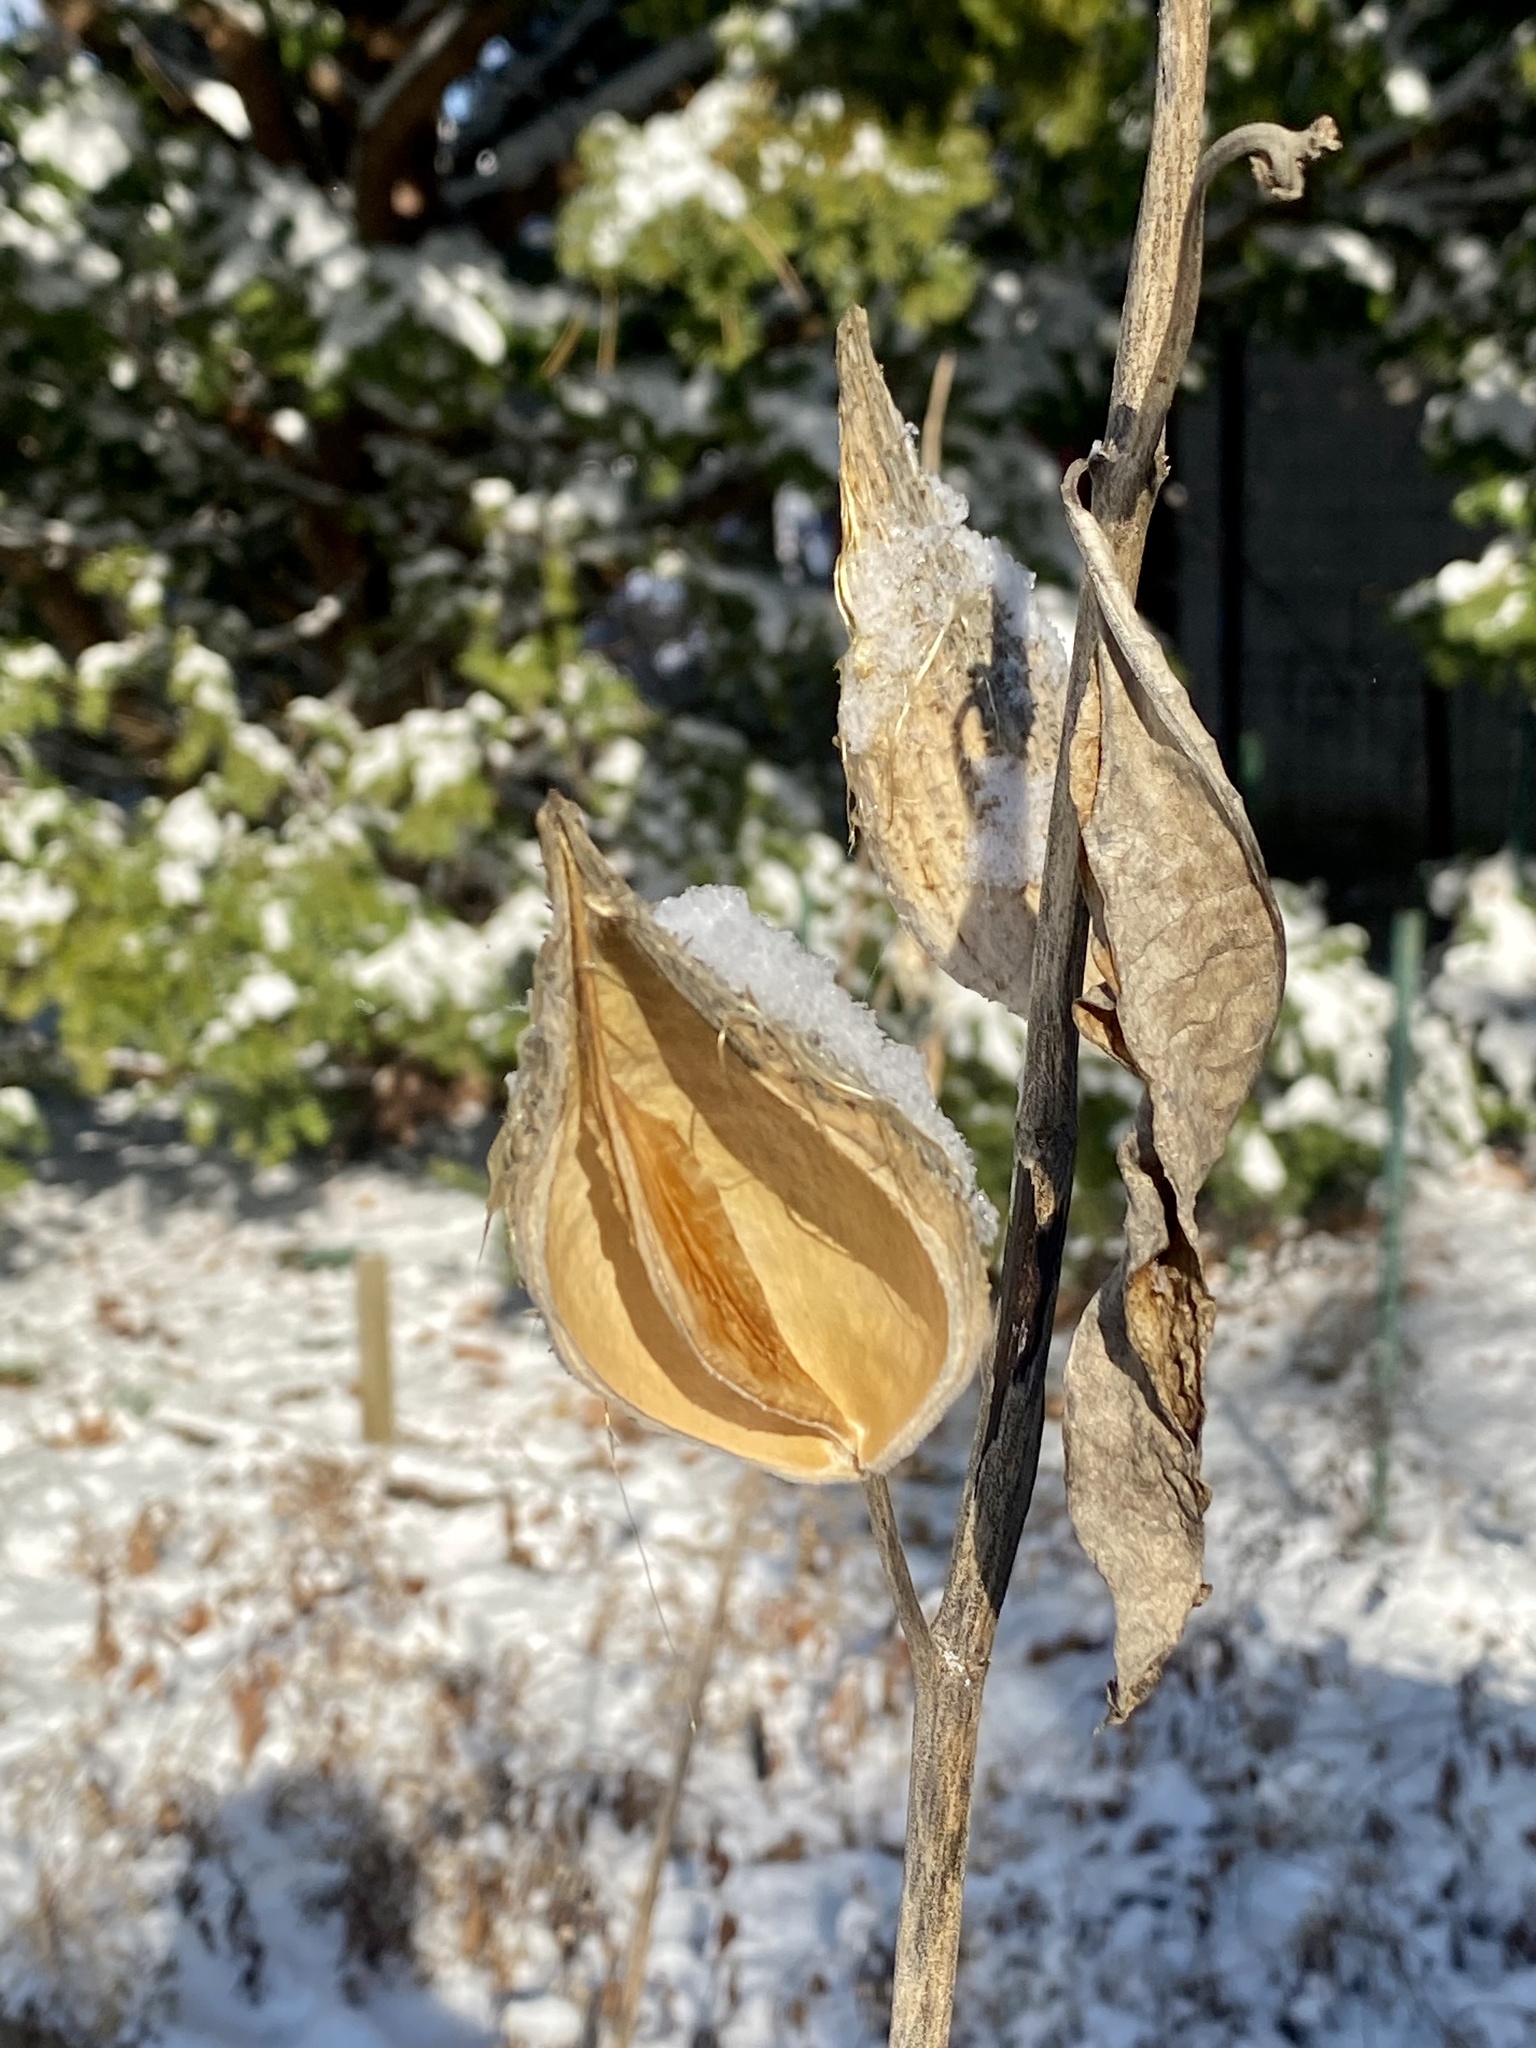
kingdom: Plantae
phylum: Tracheophyta
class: Magnoliopsida
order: Gentianales
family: Apocynaceae
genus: Asclepias
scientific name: Asclepias syriaca
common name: Common milkweed
